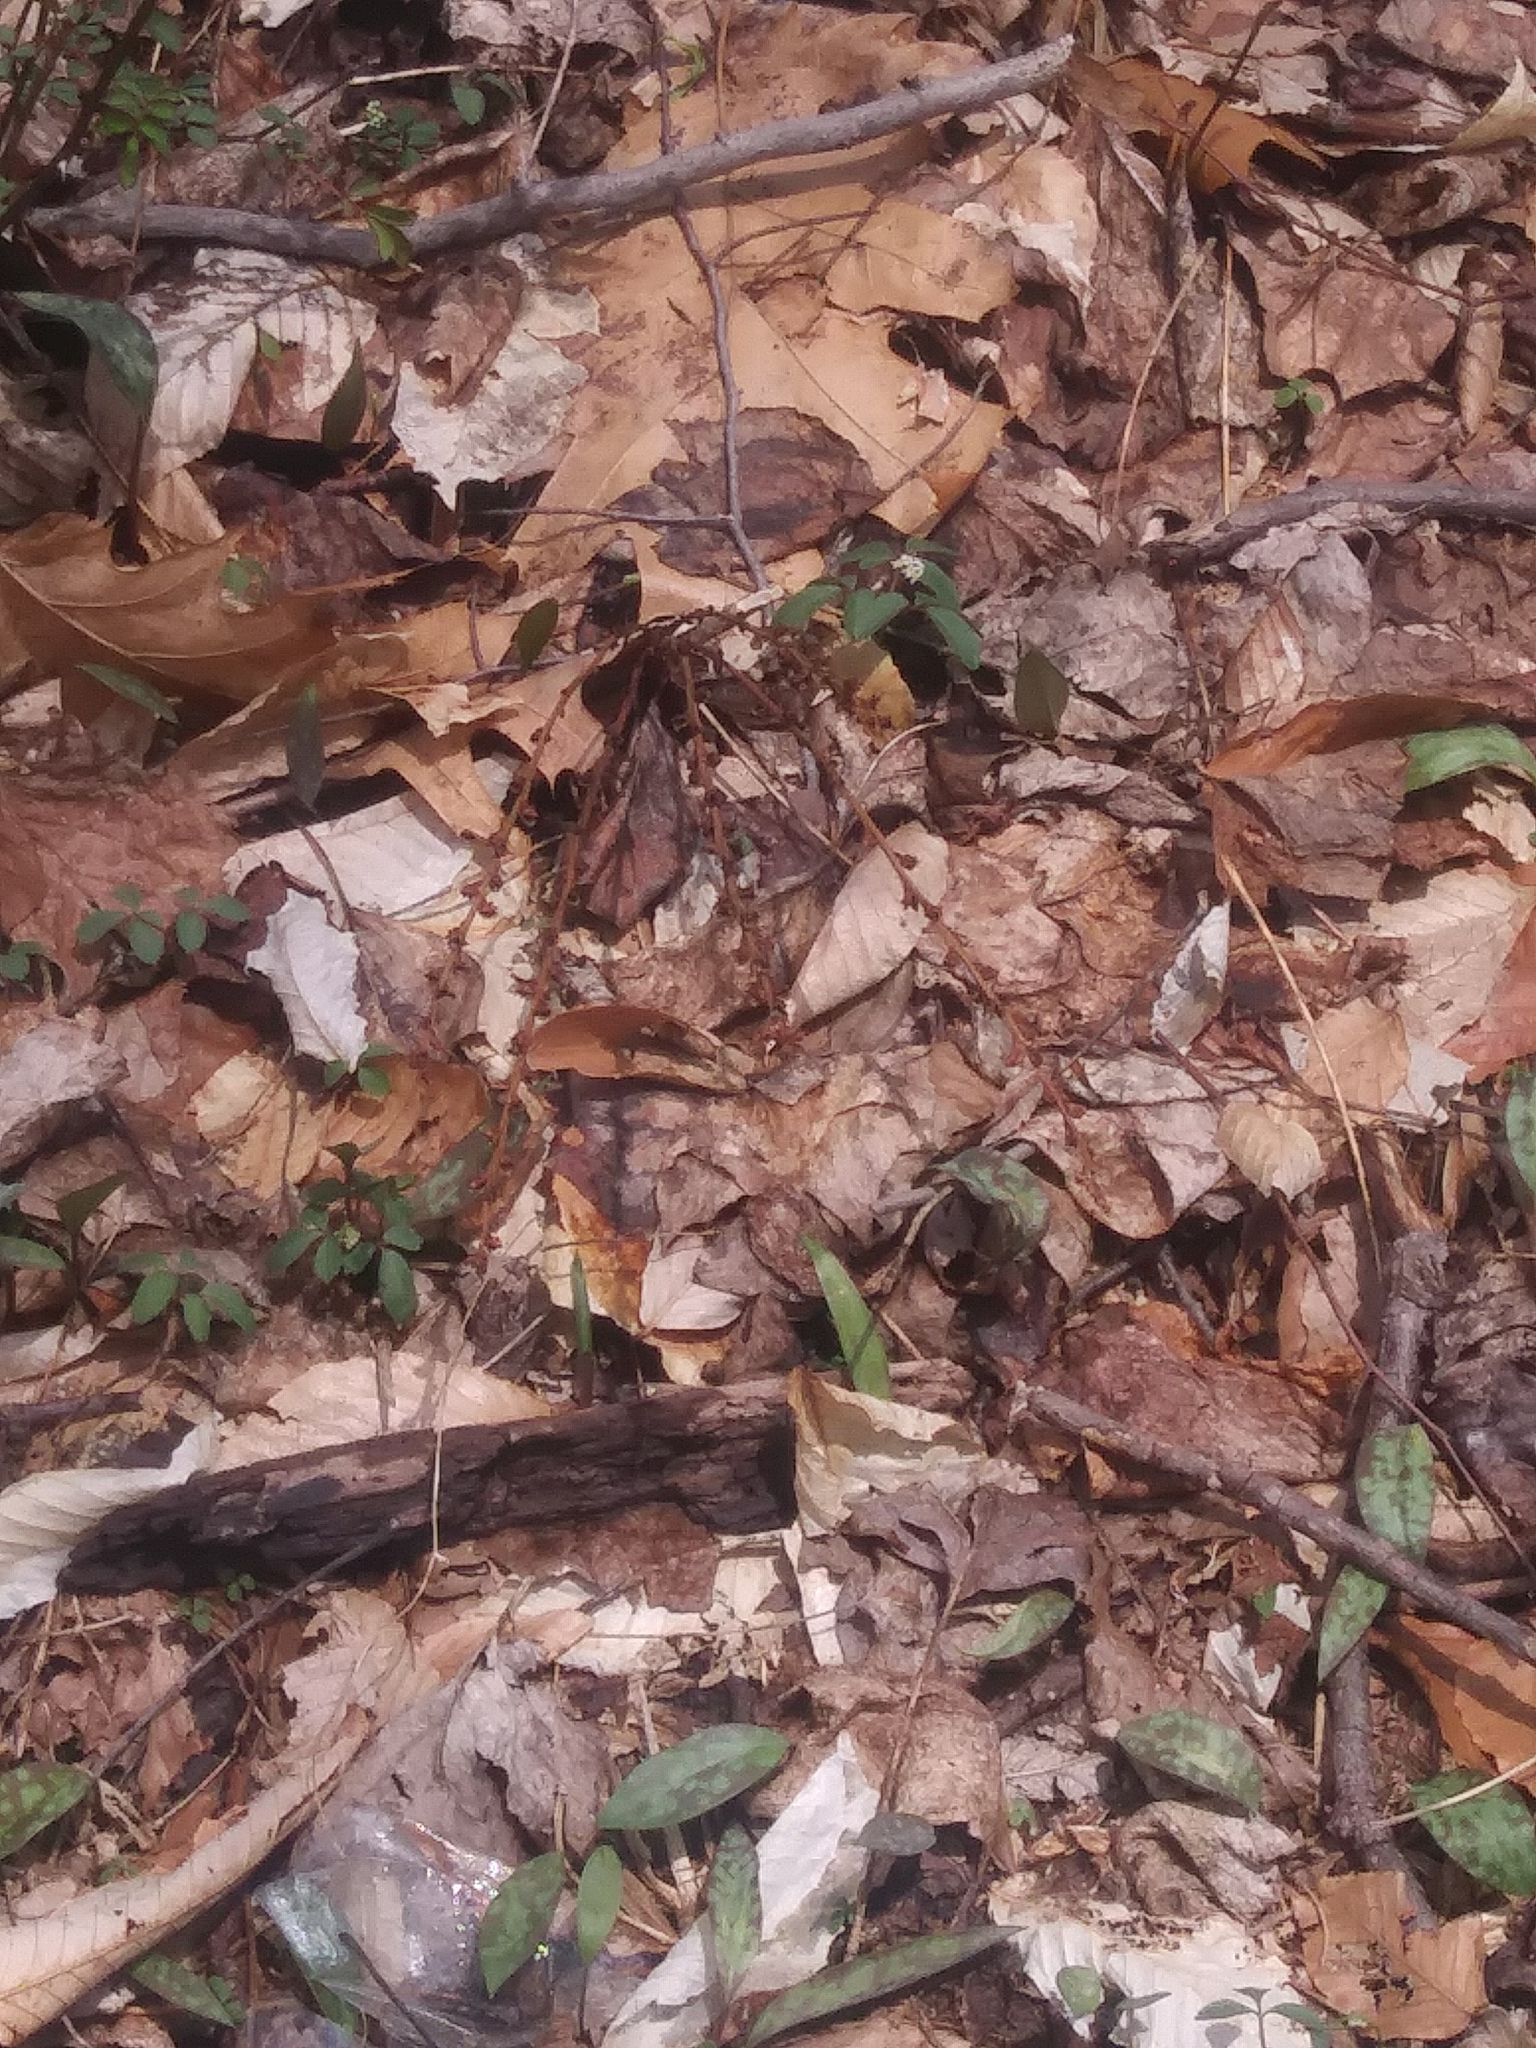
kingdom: Plantae
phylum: Tracheophyta
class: Magnoliopsida
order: Lamiales
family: Orobanchaceae
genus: Epifagus
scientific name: Epifagus virginiana
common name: Beechdrops
